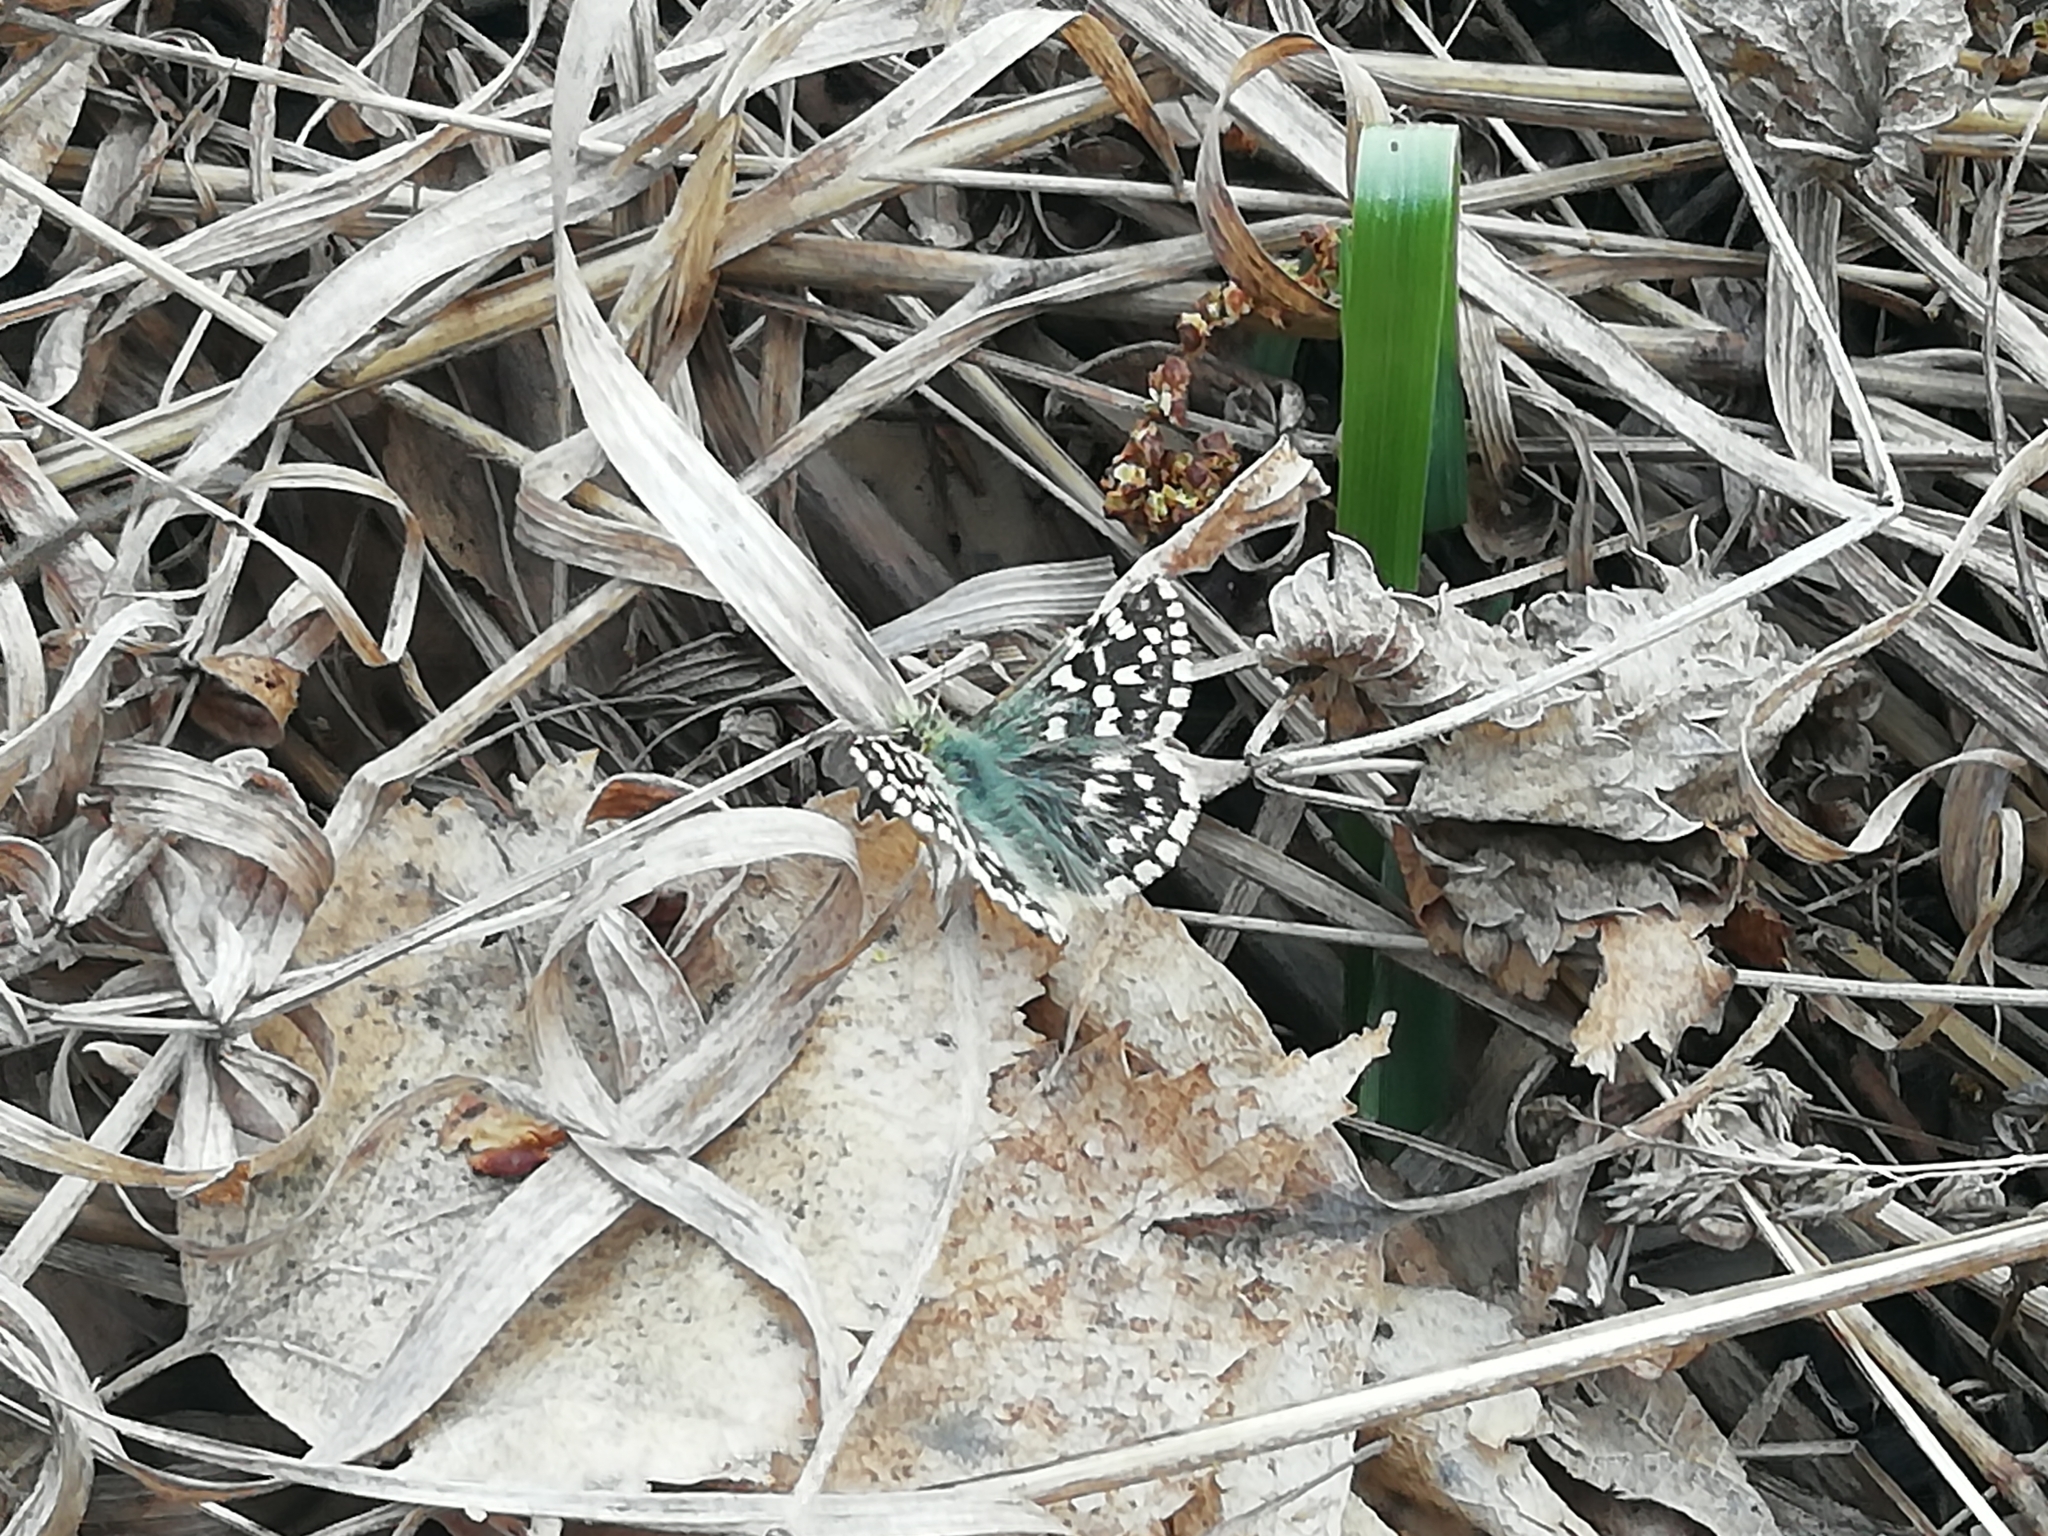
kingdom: Animalia
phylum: Arthropoda
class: Insecta
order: Lepidoptera
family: Hesperiidae
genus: Pyrgus
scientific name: Pyrgus malvae
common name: Grizzled skipper
